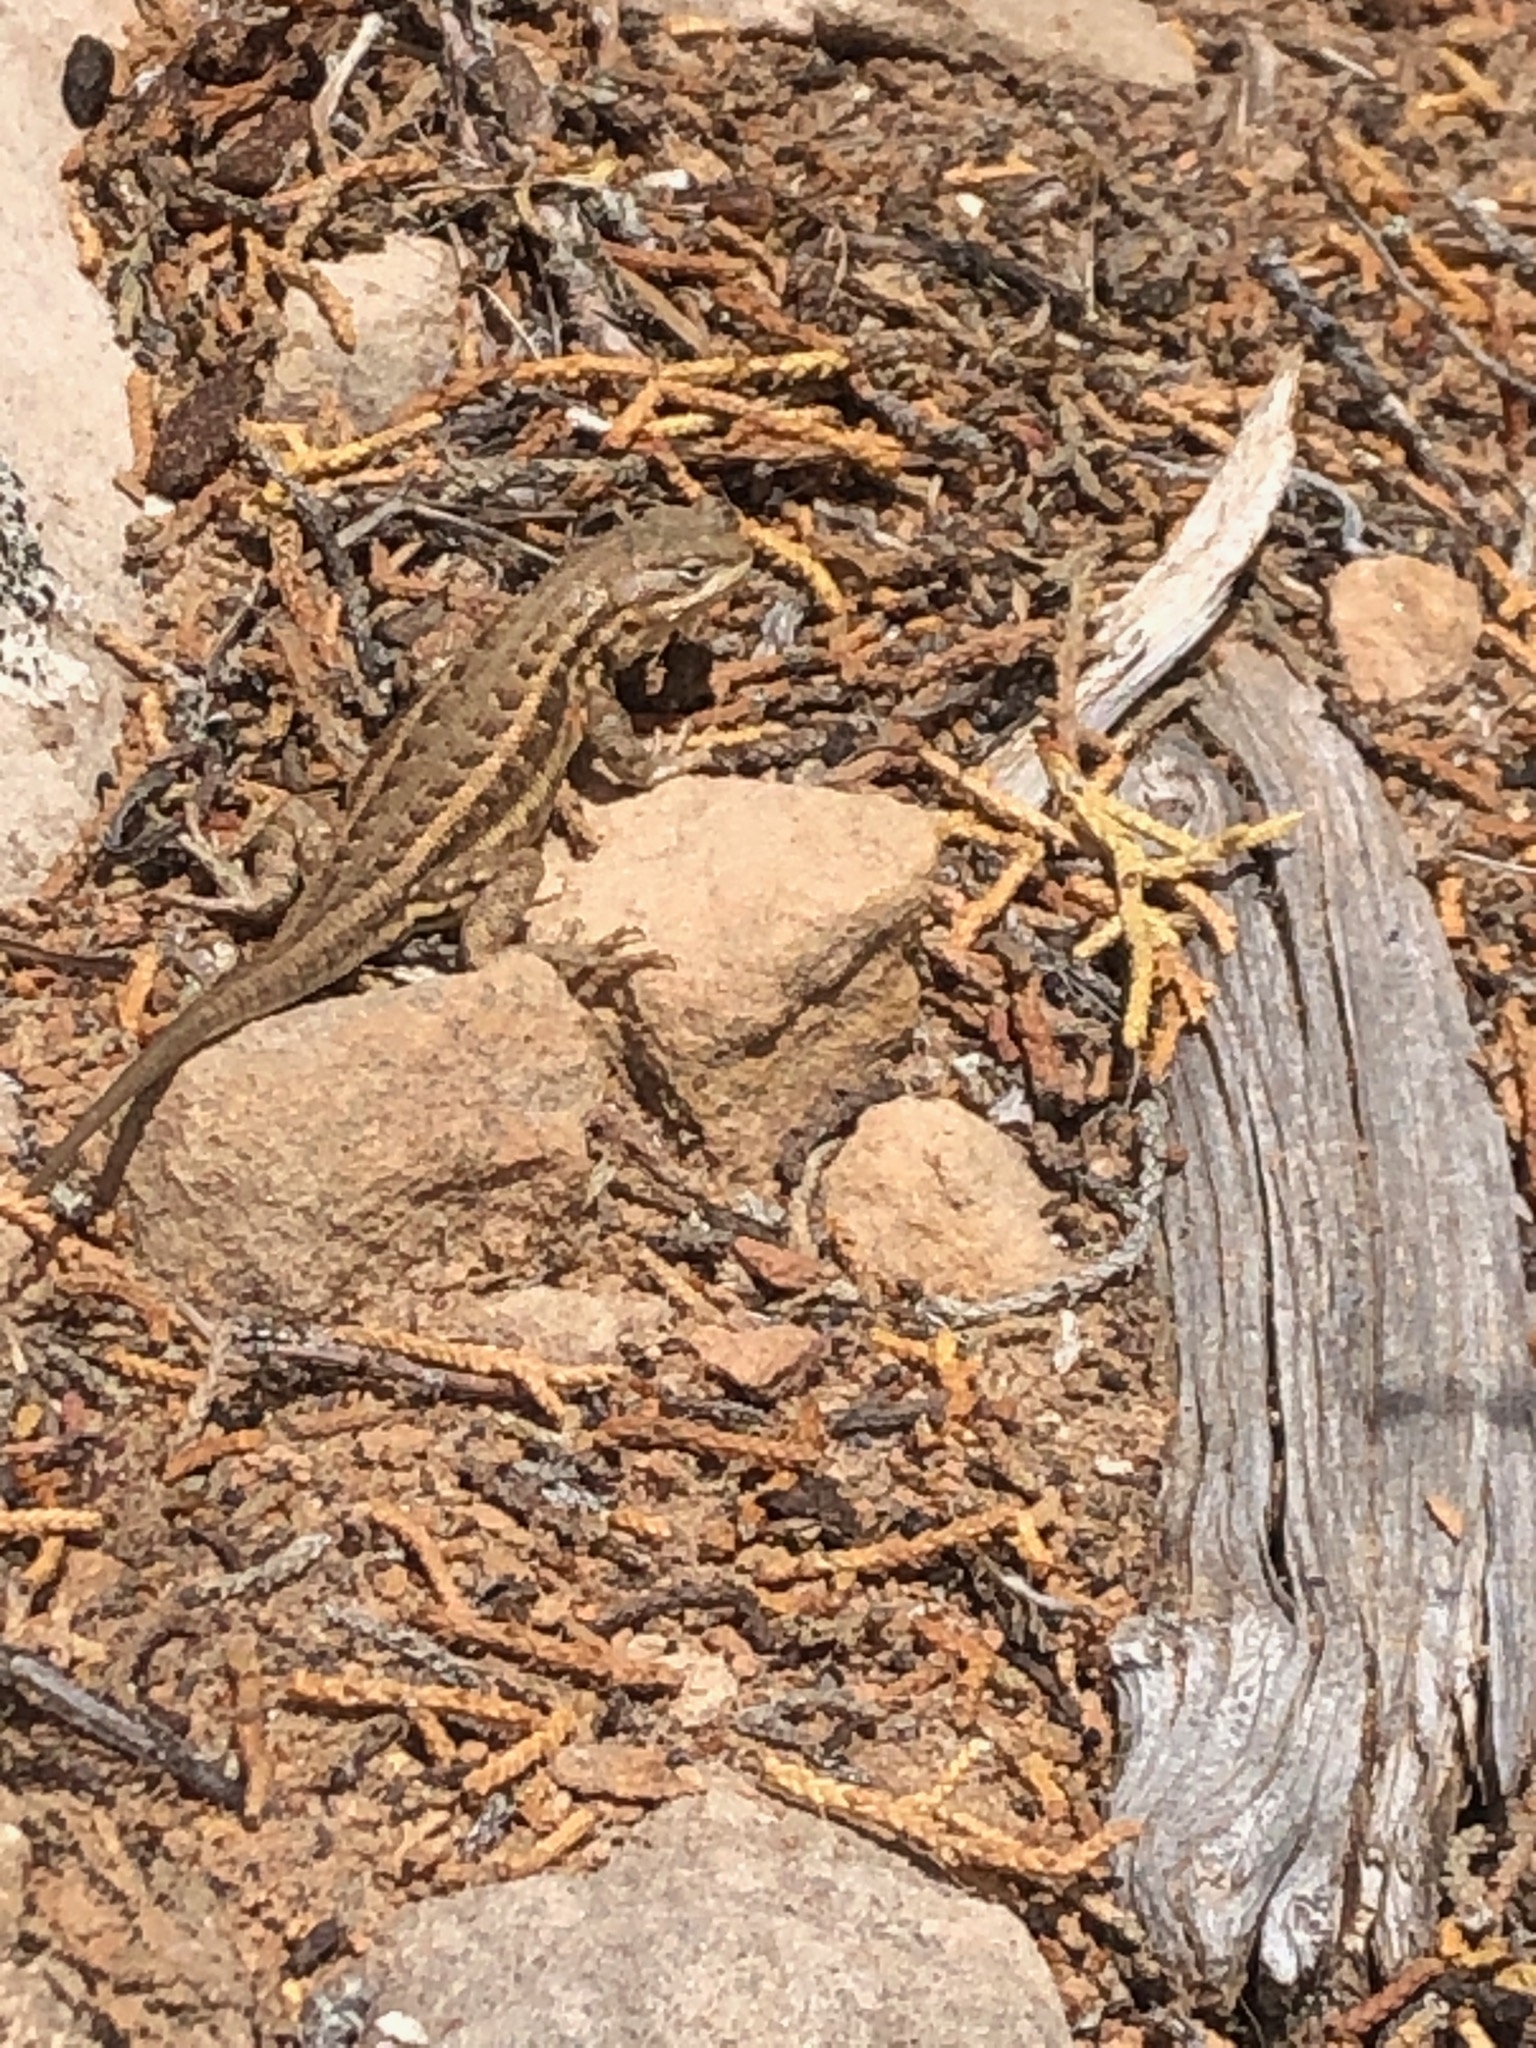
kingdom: Animalia
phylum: Chordata
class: Squamata
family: Phrynosomatidae
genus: Sceloporus
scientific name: Sceloporus graciosus
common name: Sagebrush lizard
